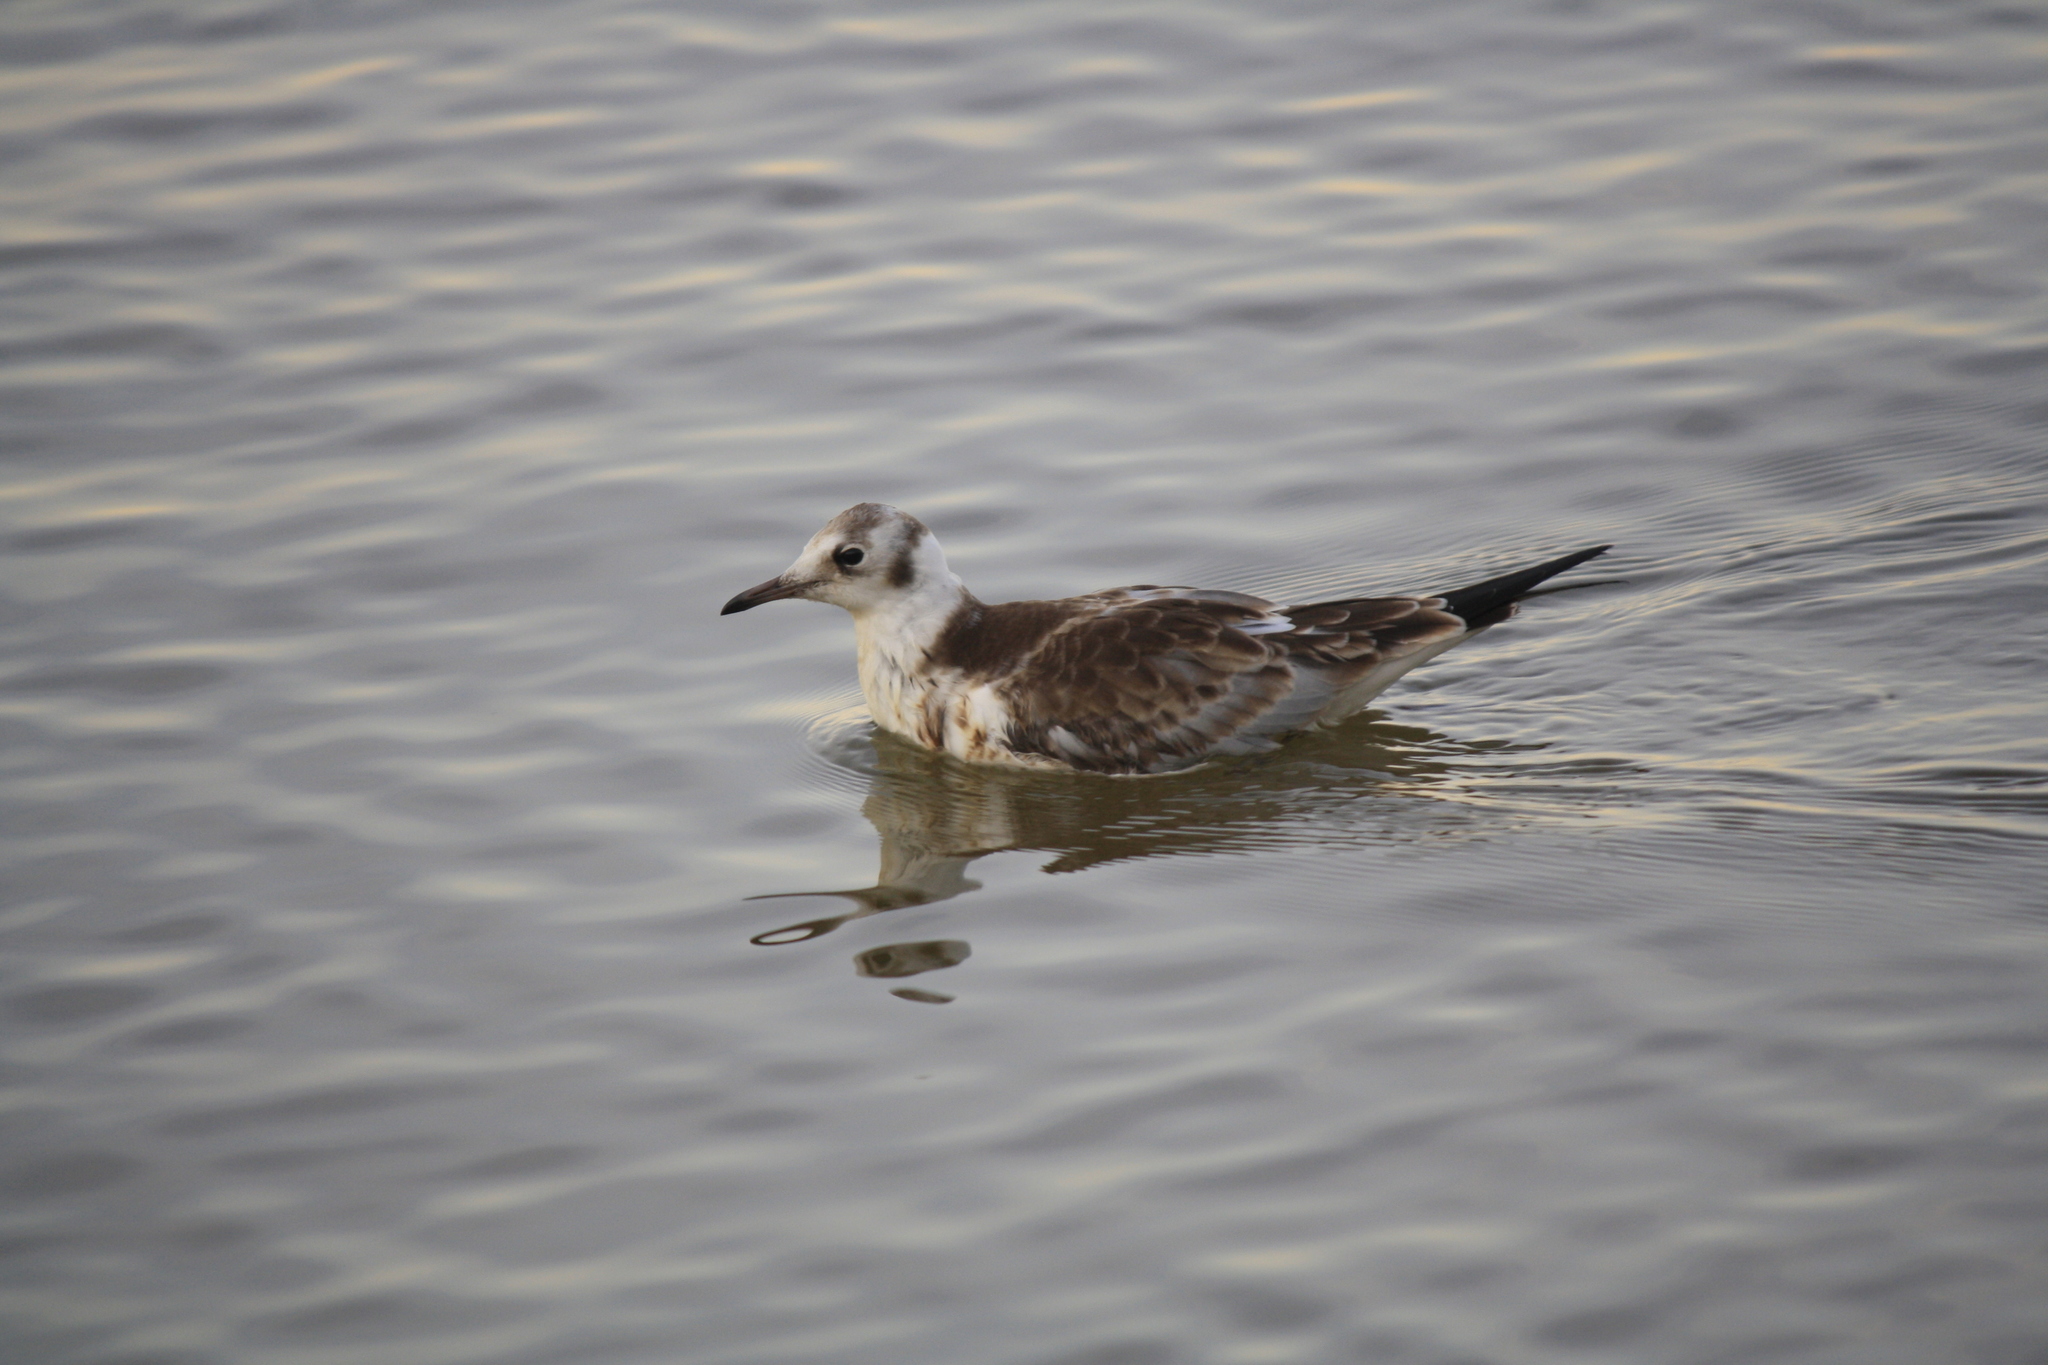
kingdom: Animalia
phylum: Chordata
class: Aves
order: Charadriiformes
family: Laridae
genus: Chroicocephalus
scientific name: Chroicocephalus ridibundus
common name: Black-headed gull
